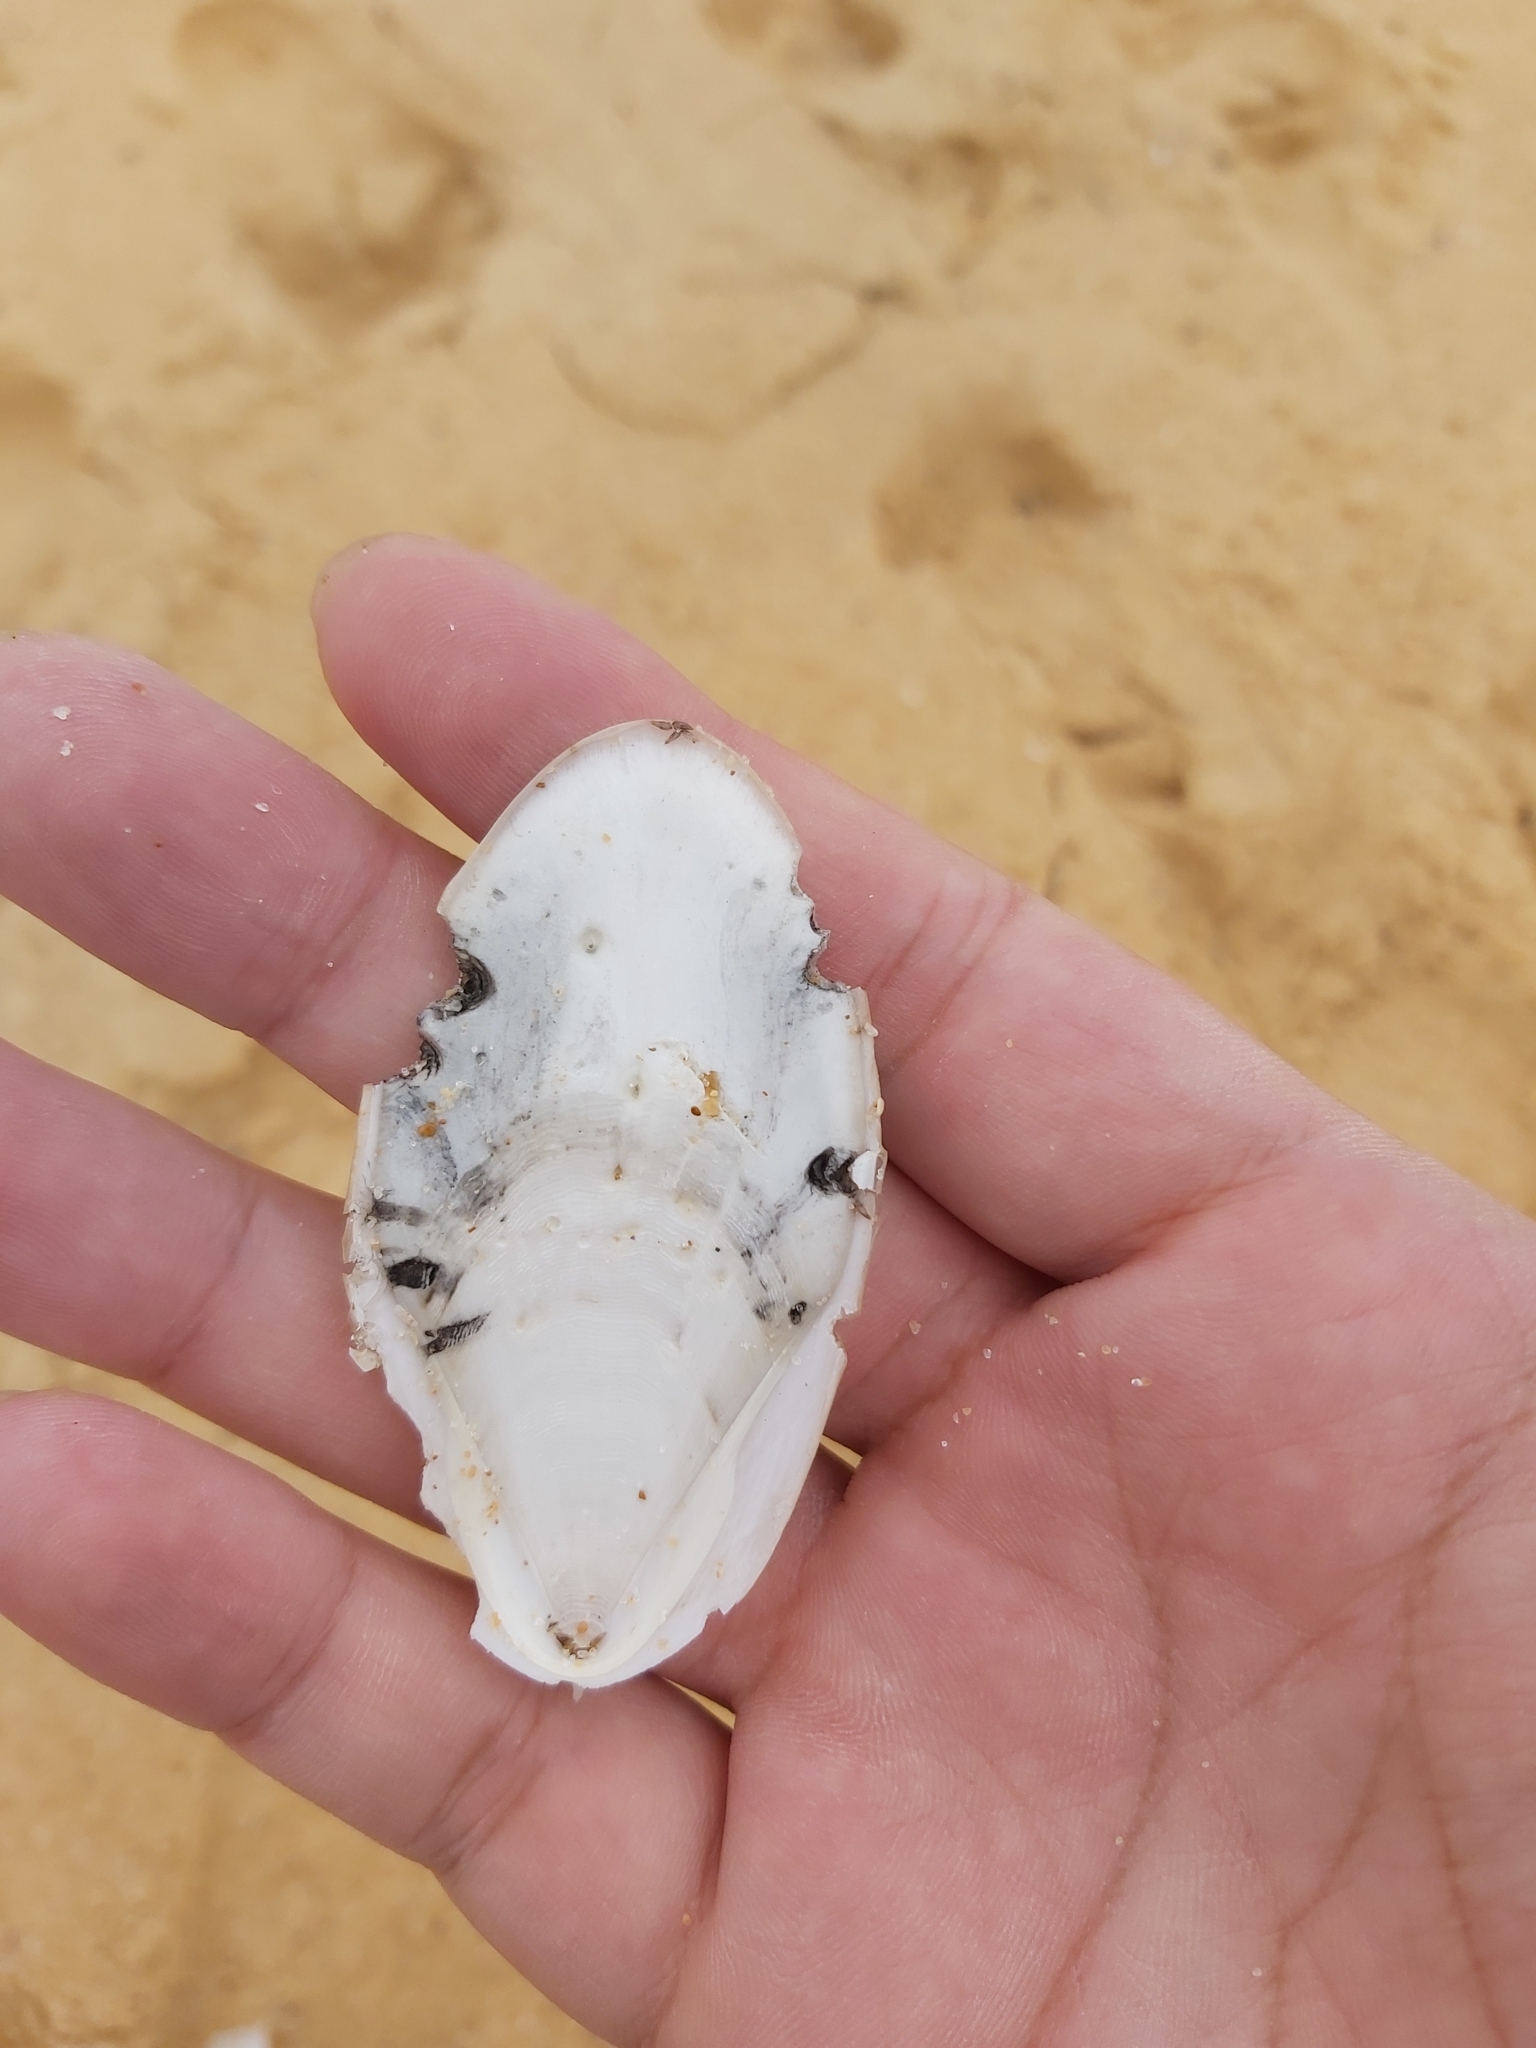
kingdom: Animalia
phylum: Mollusca
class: Cephalopoda
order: Sepiida
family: Sepiidae
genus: Ascarosepion
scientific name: Ascarosepion mestus
